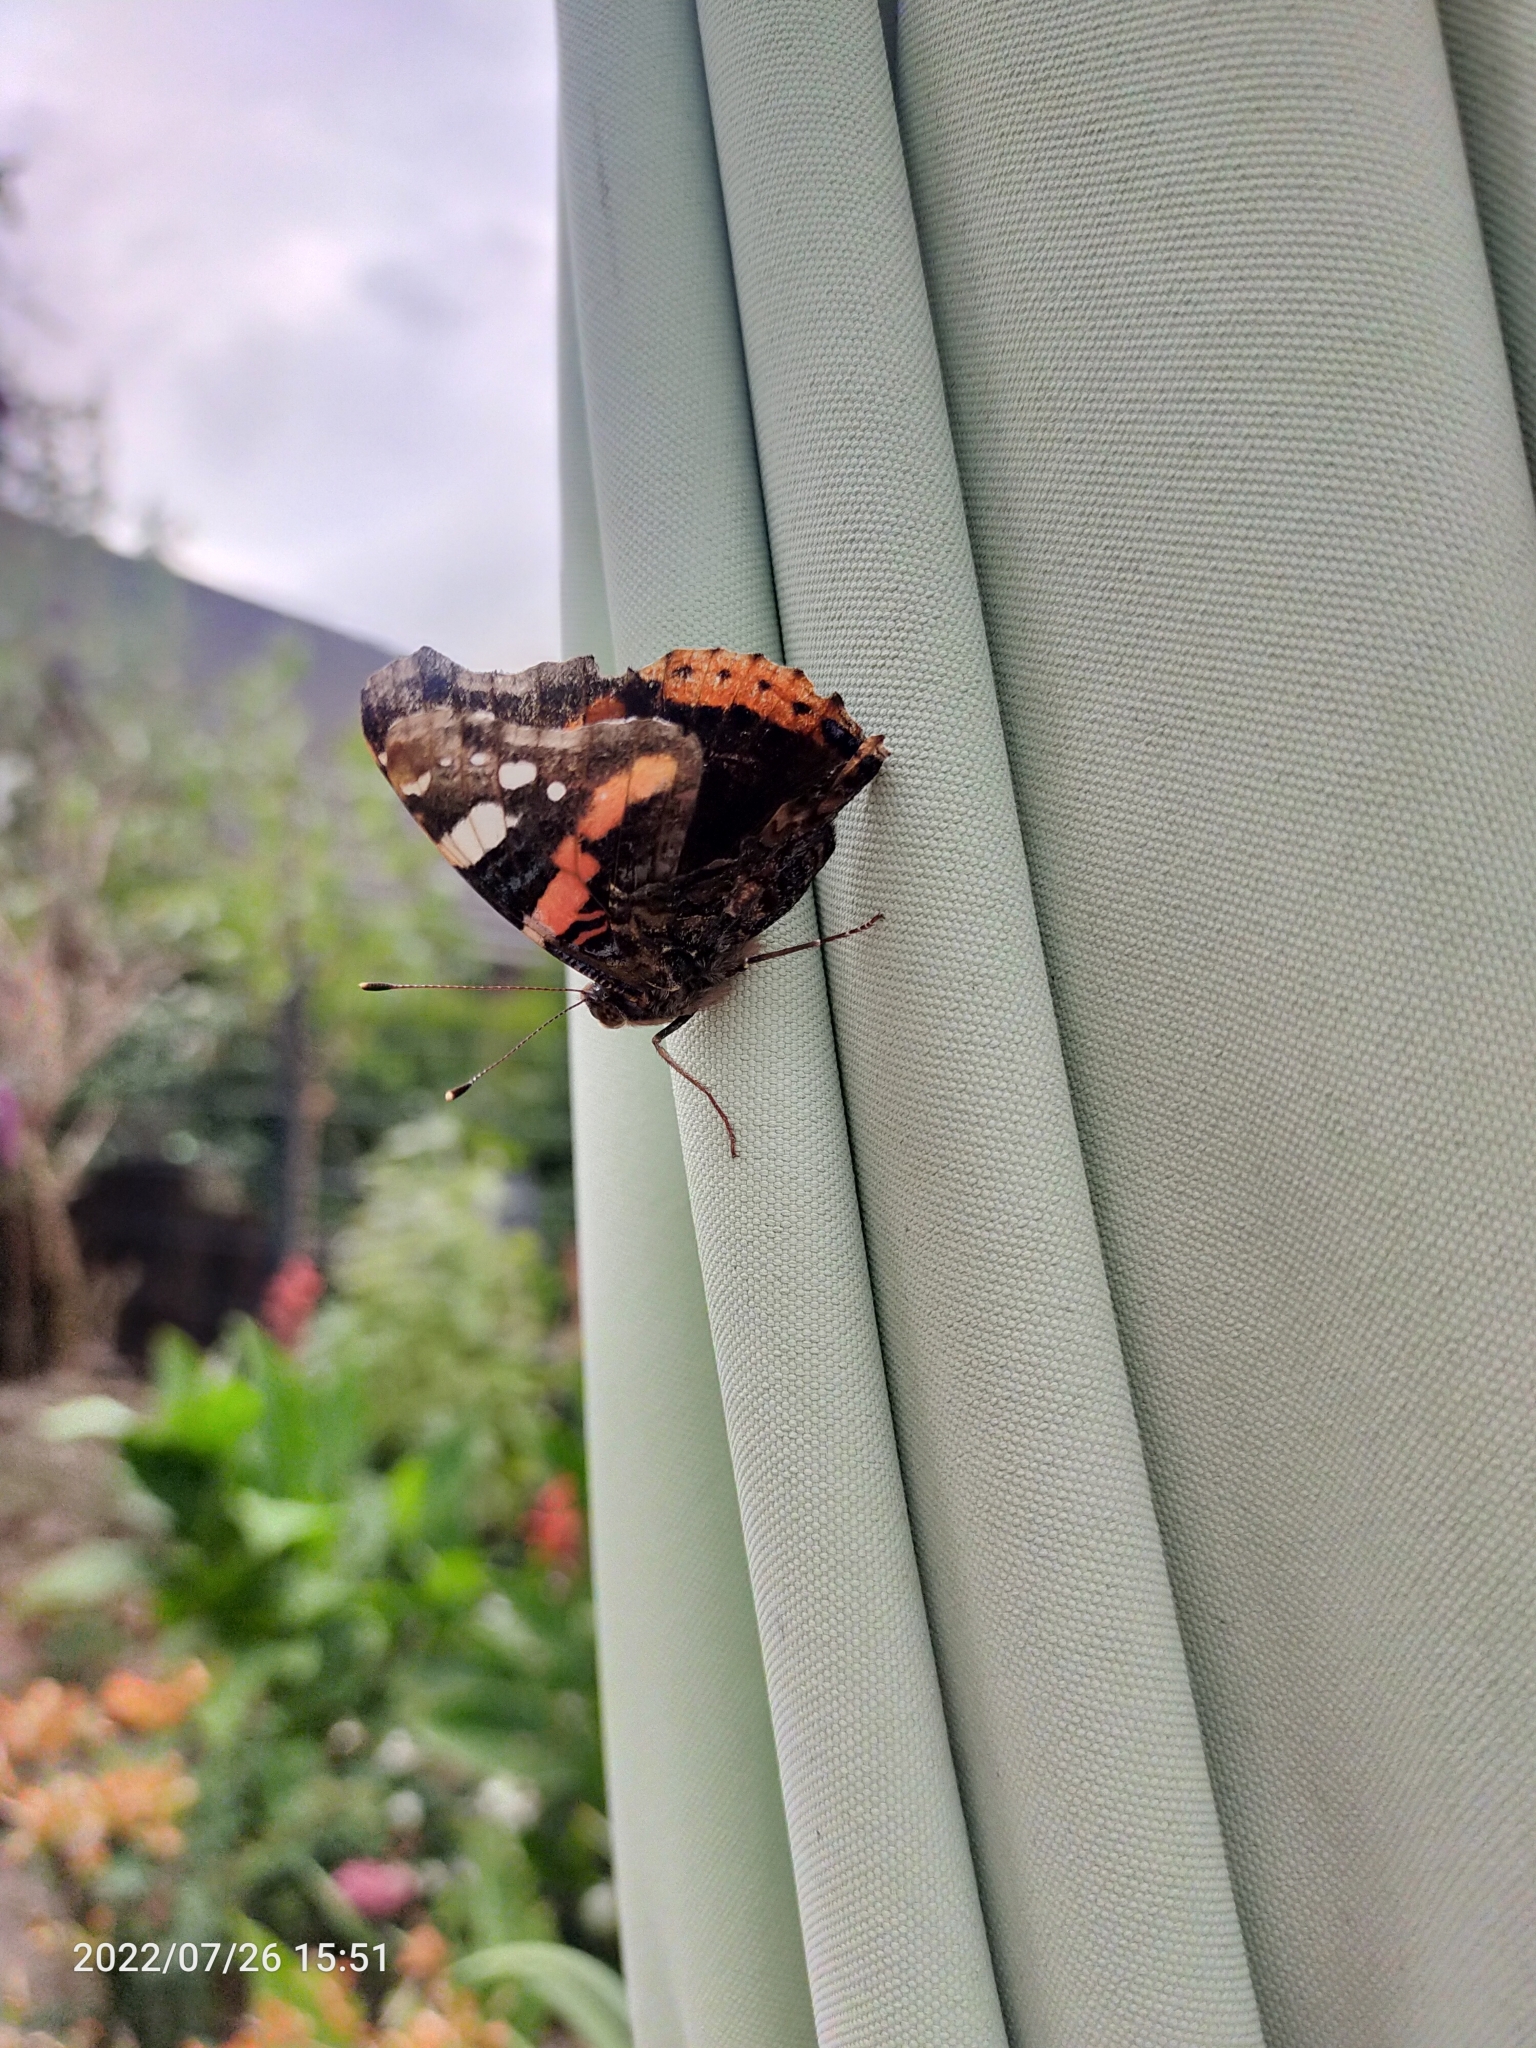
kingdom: Animalia
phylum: Arthropoda
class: Insecta
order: Lepidoptera
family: Nymphalidae
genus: Vanessa
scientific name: Vanessa atalanta
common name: Red admiral
